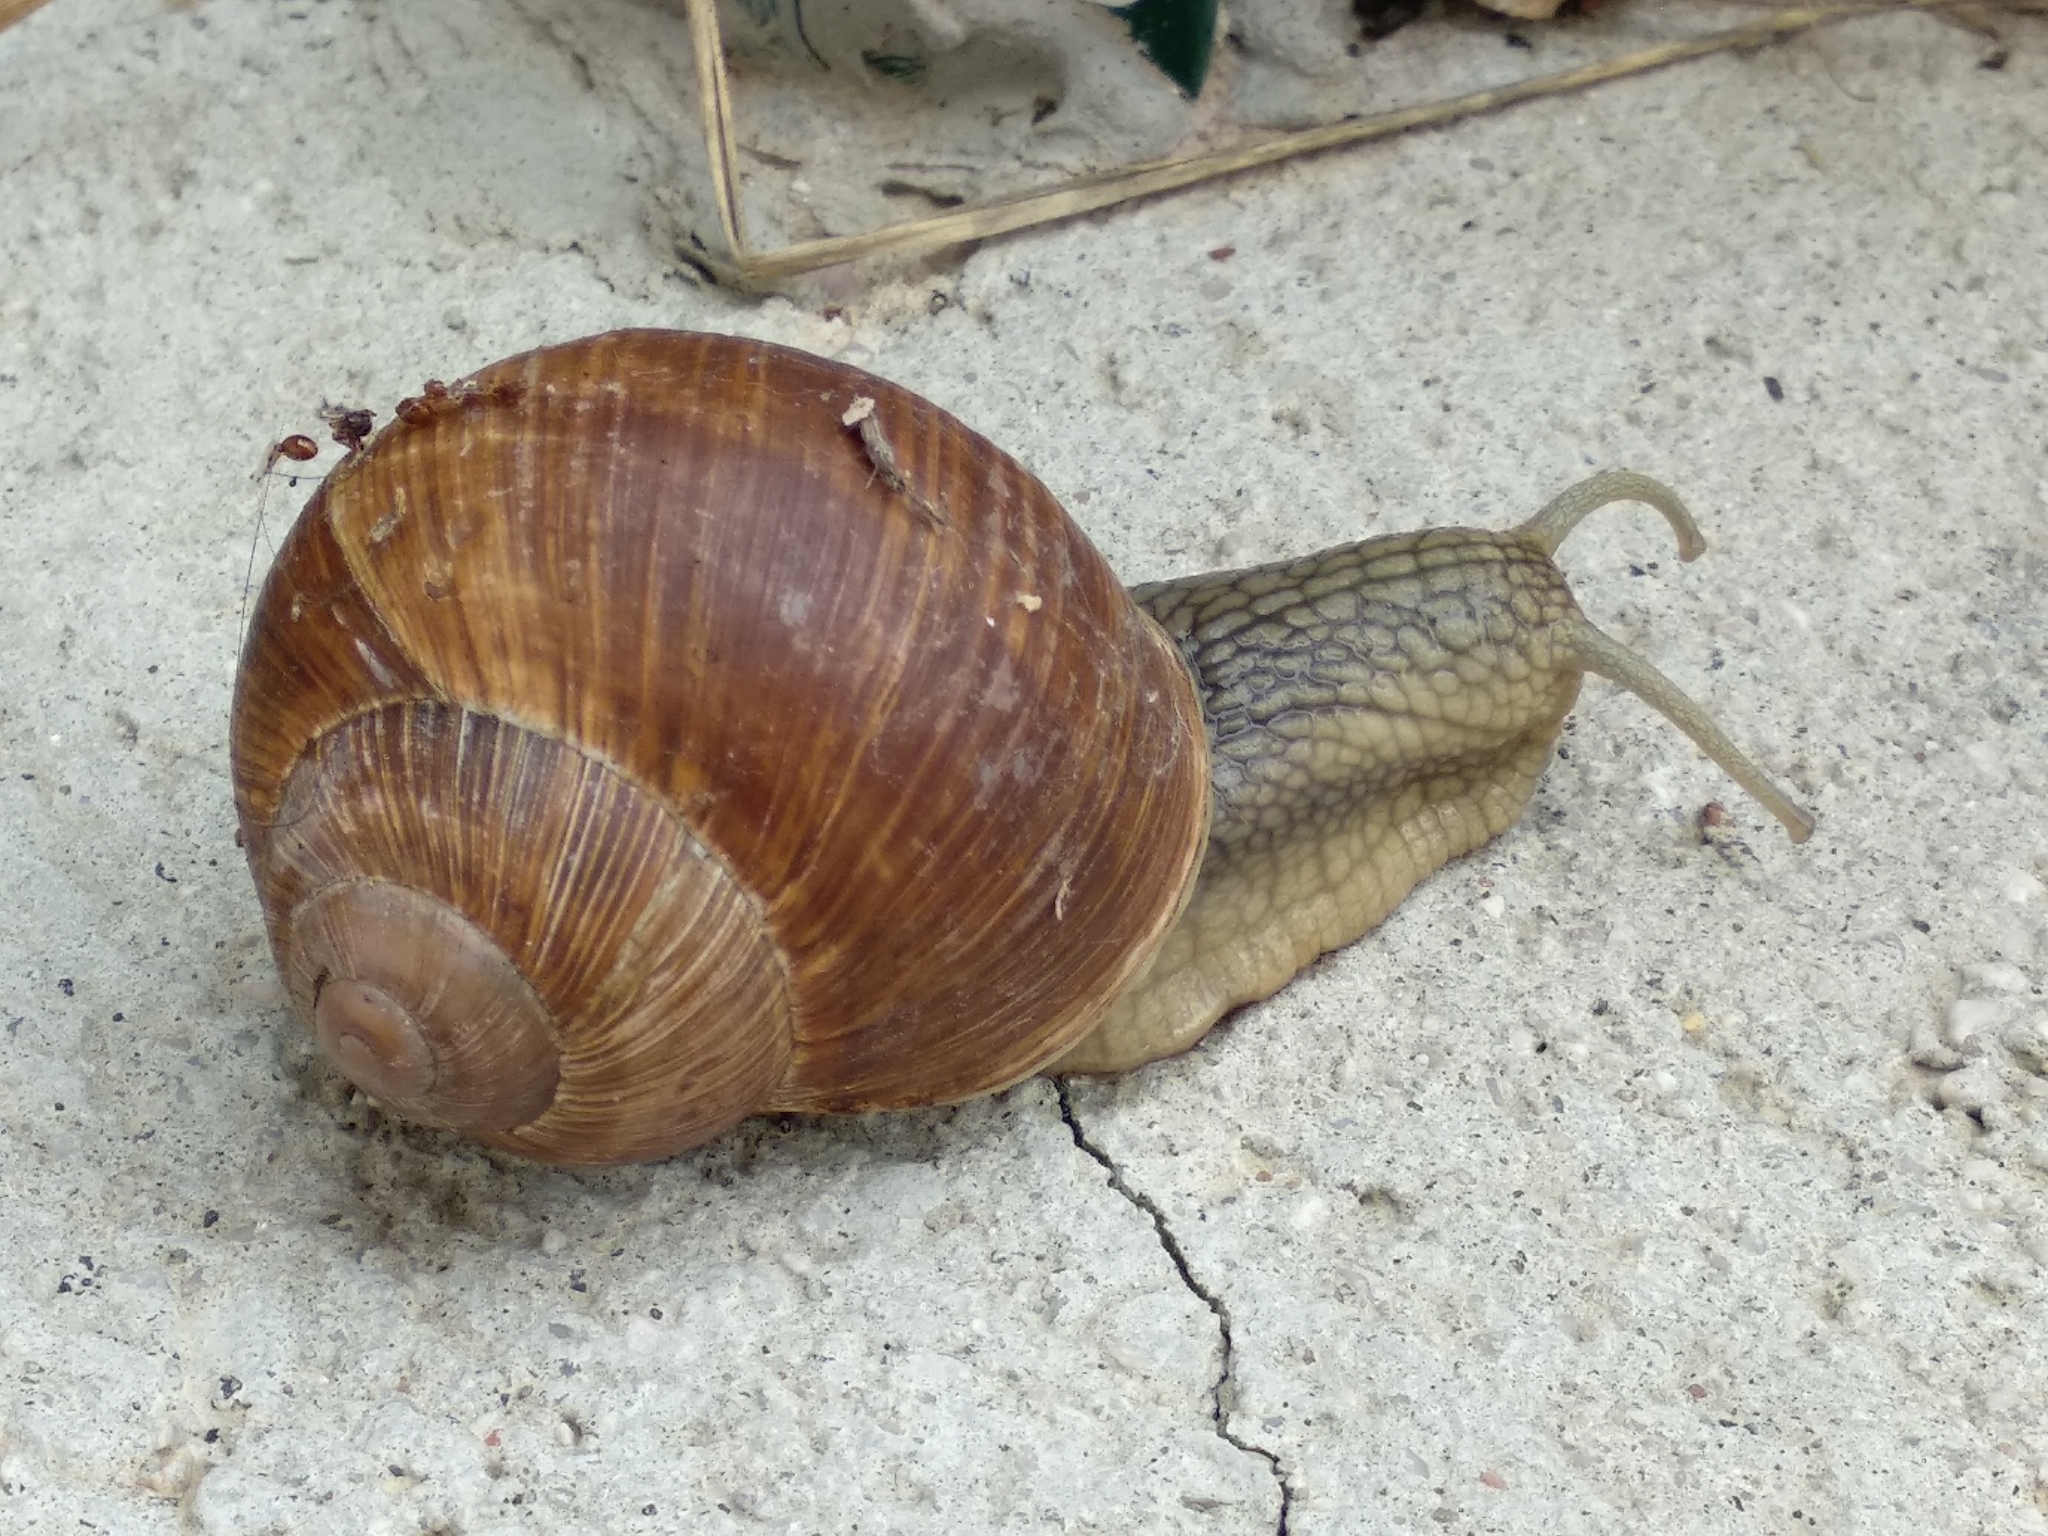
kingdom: Animalia
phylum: Mollusca
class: Gastropoda
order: Stylommatophora
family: Helicidae
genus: Helix
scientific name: Helix pomatia
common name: Roman snail
